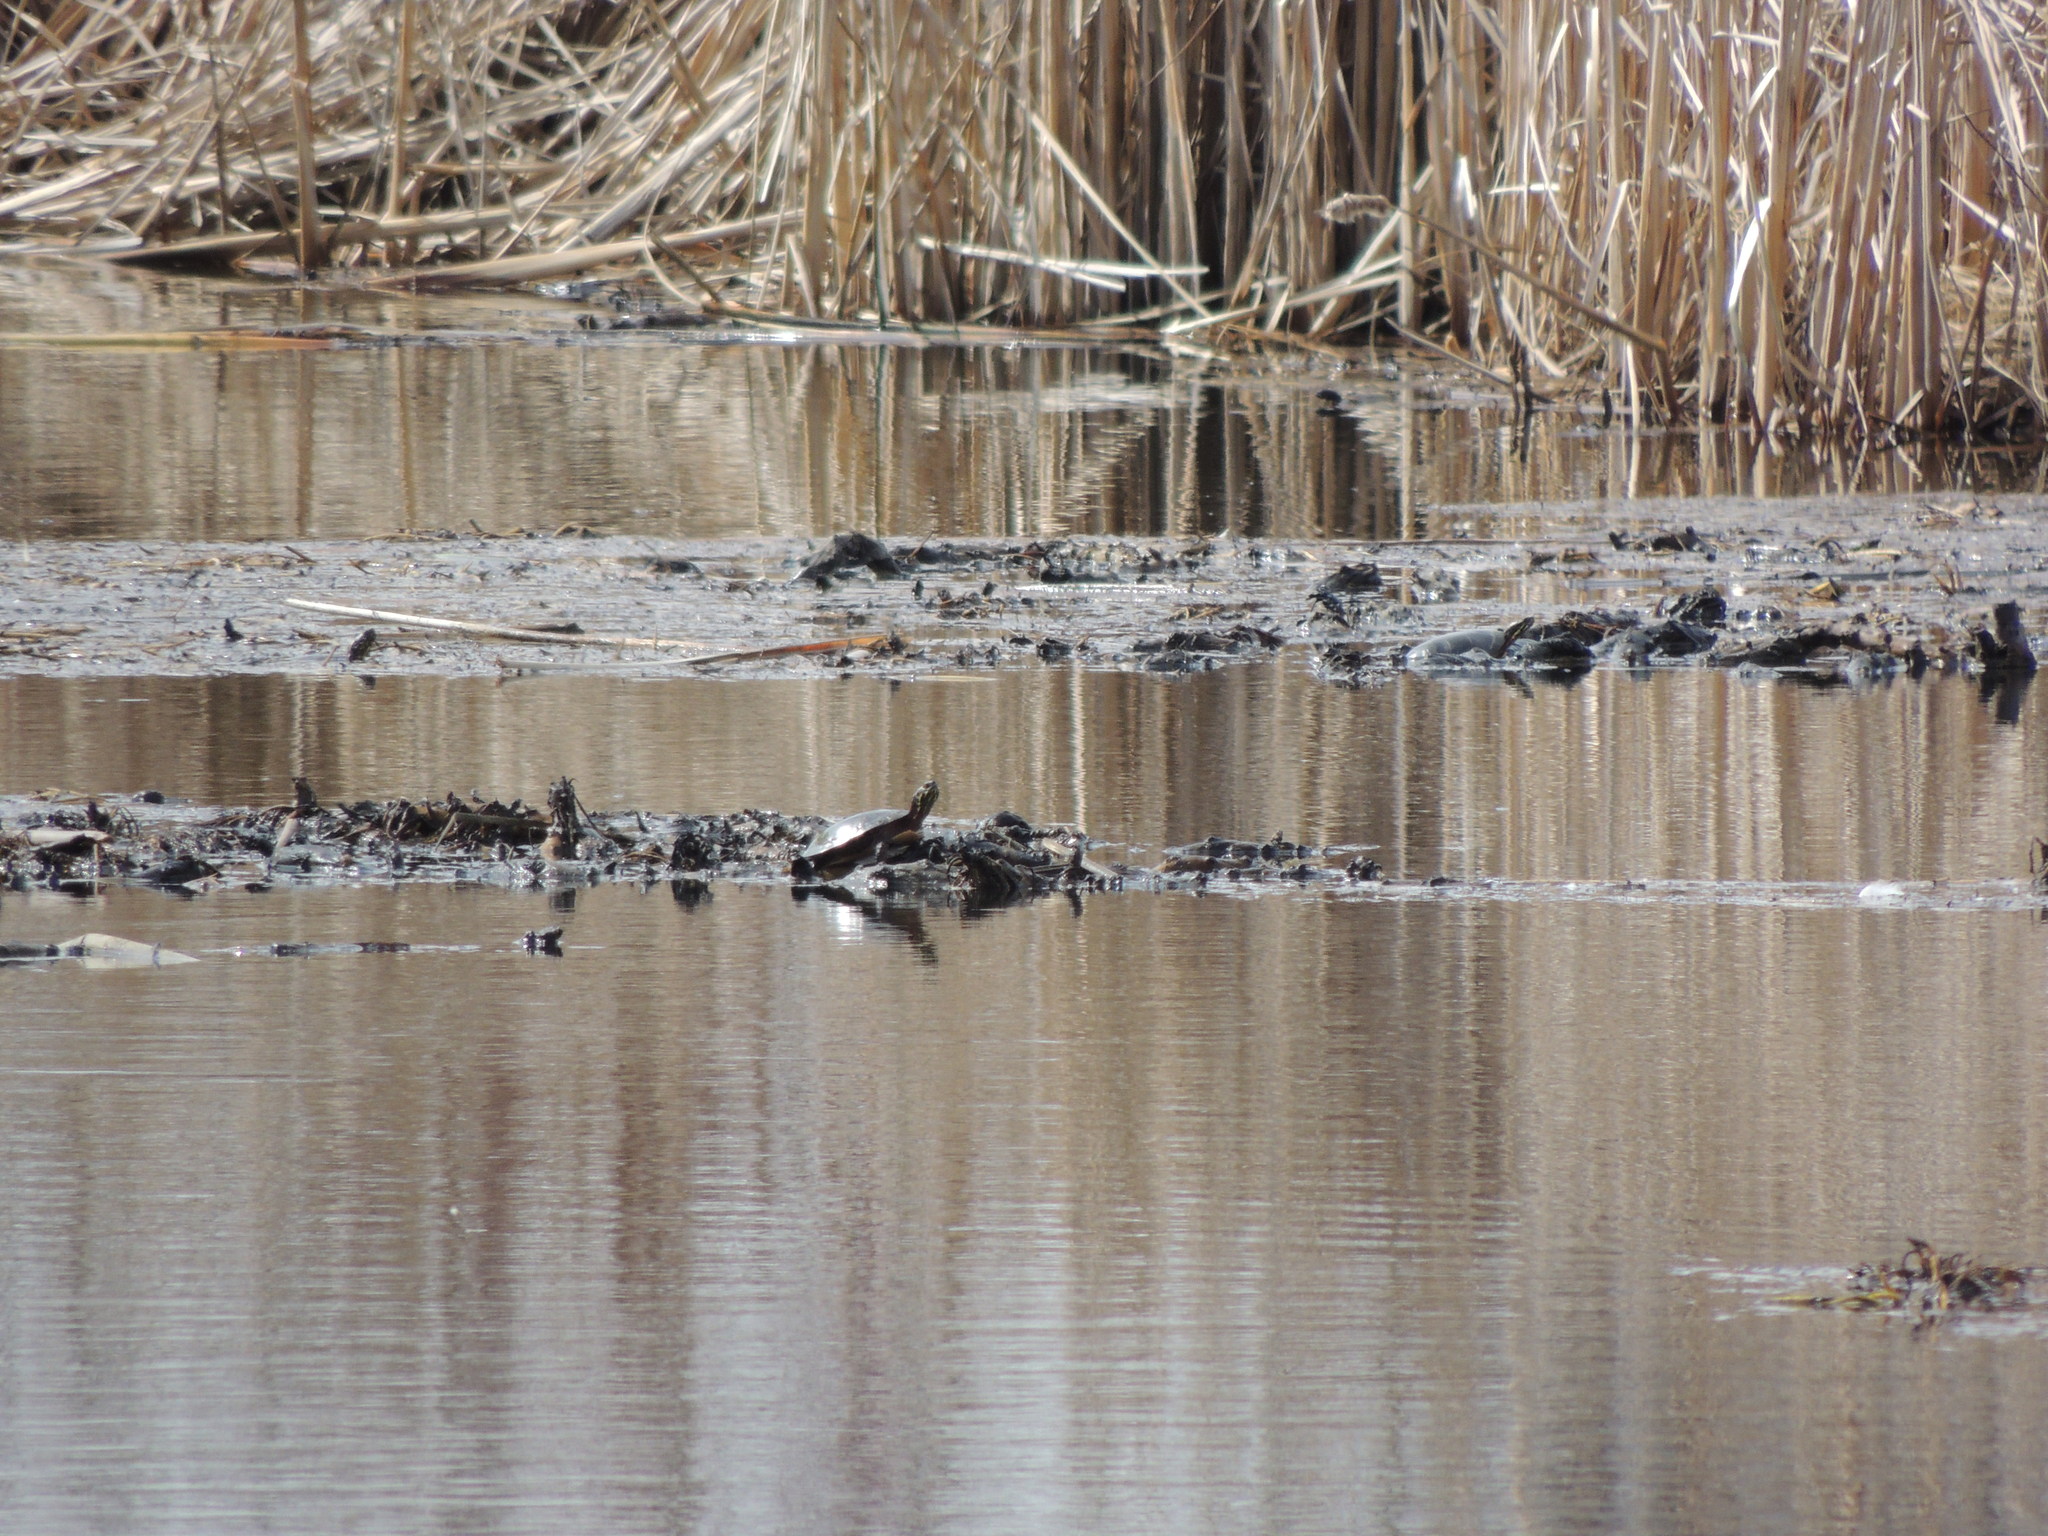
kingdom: Animalia
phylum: Chordata
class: Testudines
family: Emydidae
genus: Chrysemys
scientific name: Chrysemys picta
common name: Painted turtle
